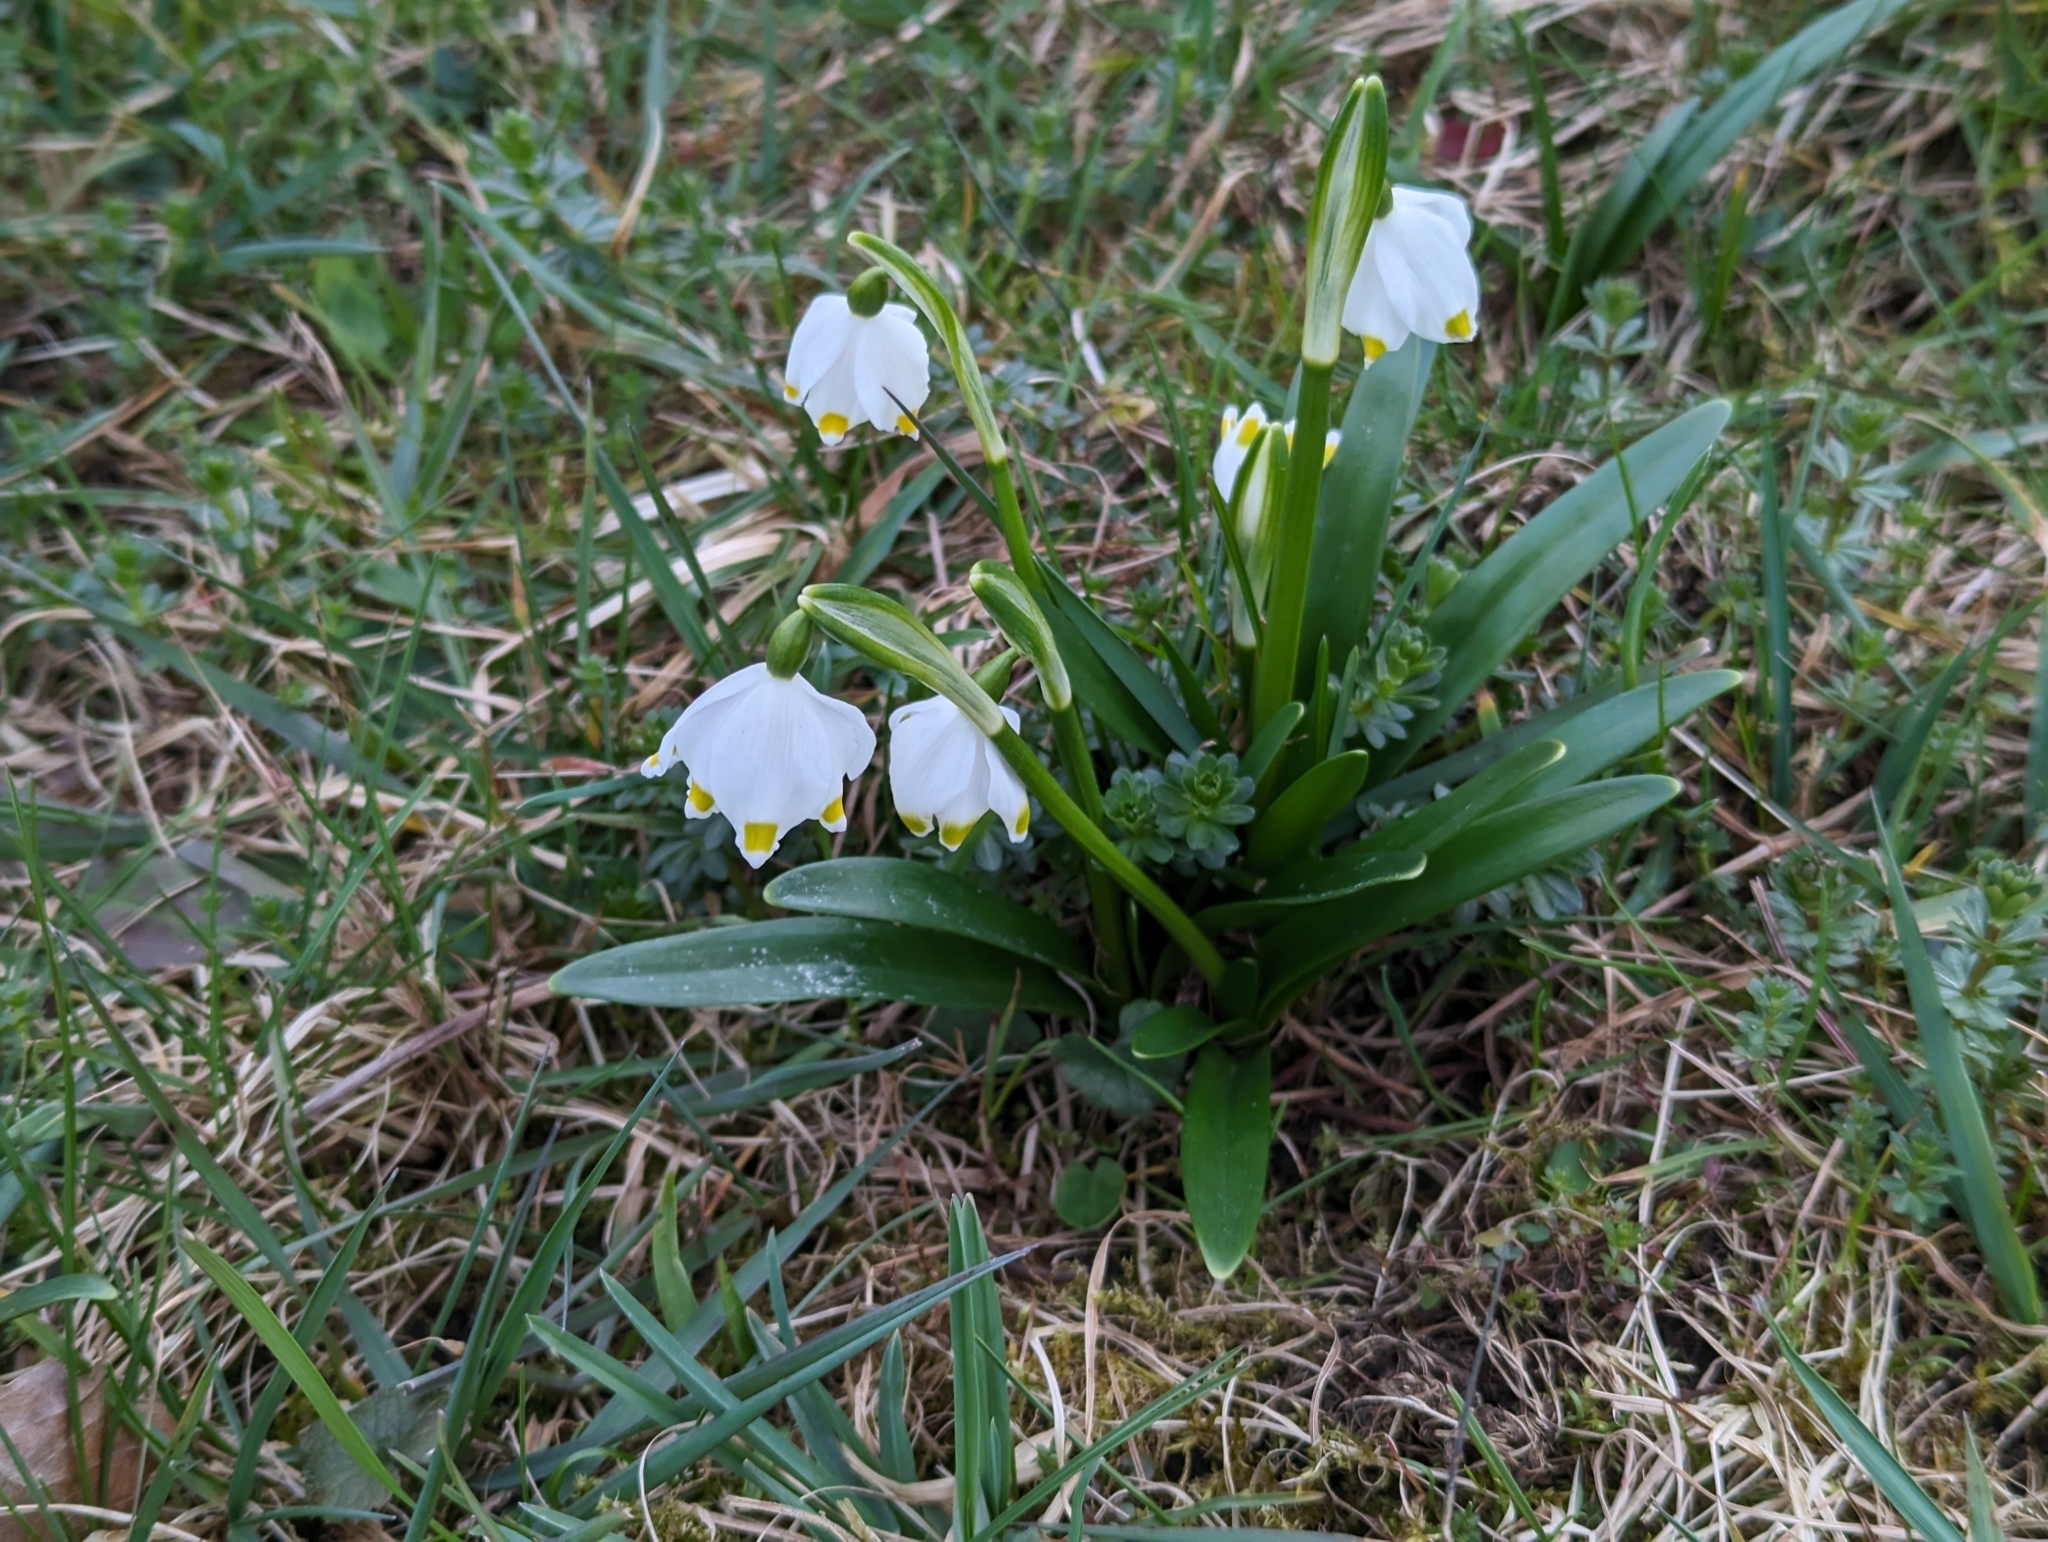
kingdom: Plantae
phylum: Tracheophyta
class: Liliopsida
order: Asparagales
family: Amaryllidaceae
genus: Leucojum
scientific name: Leucojum vernum
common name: Spring snowflake
